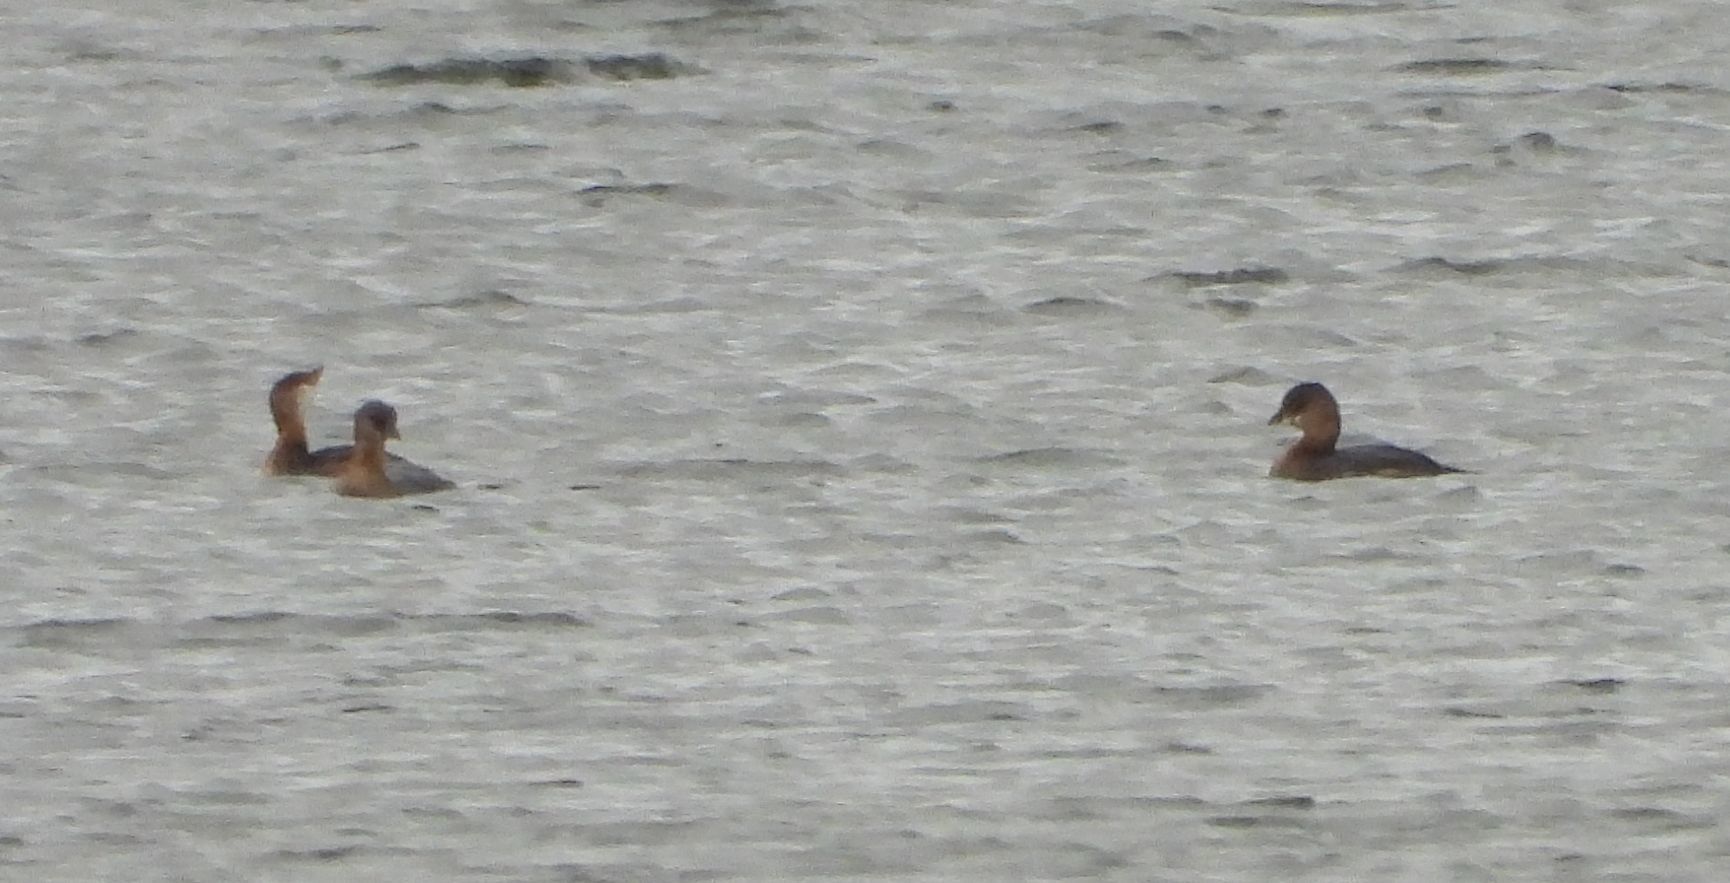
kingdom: Animalia
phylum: Chordata
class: Aves
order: Podicipediformes
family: Podicipedidae
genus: Podiceps
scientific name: Podiceps grisegena
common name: Red-necked grebe
